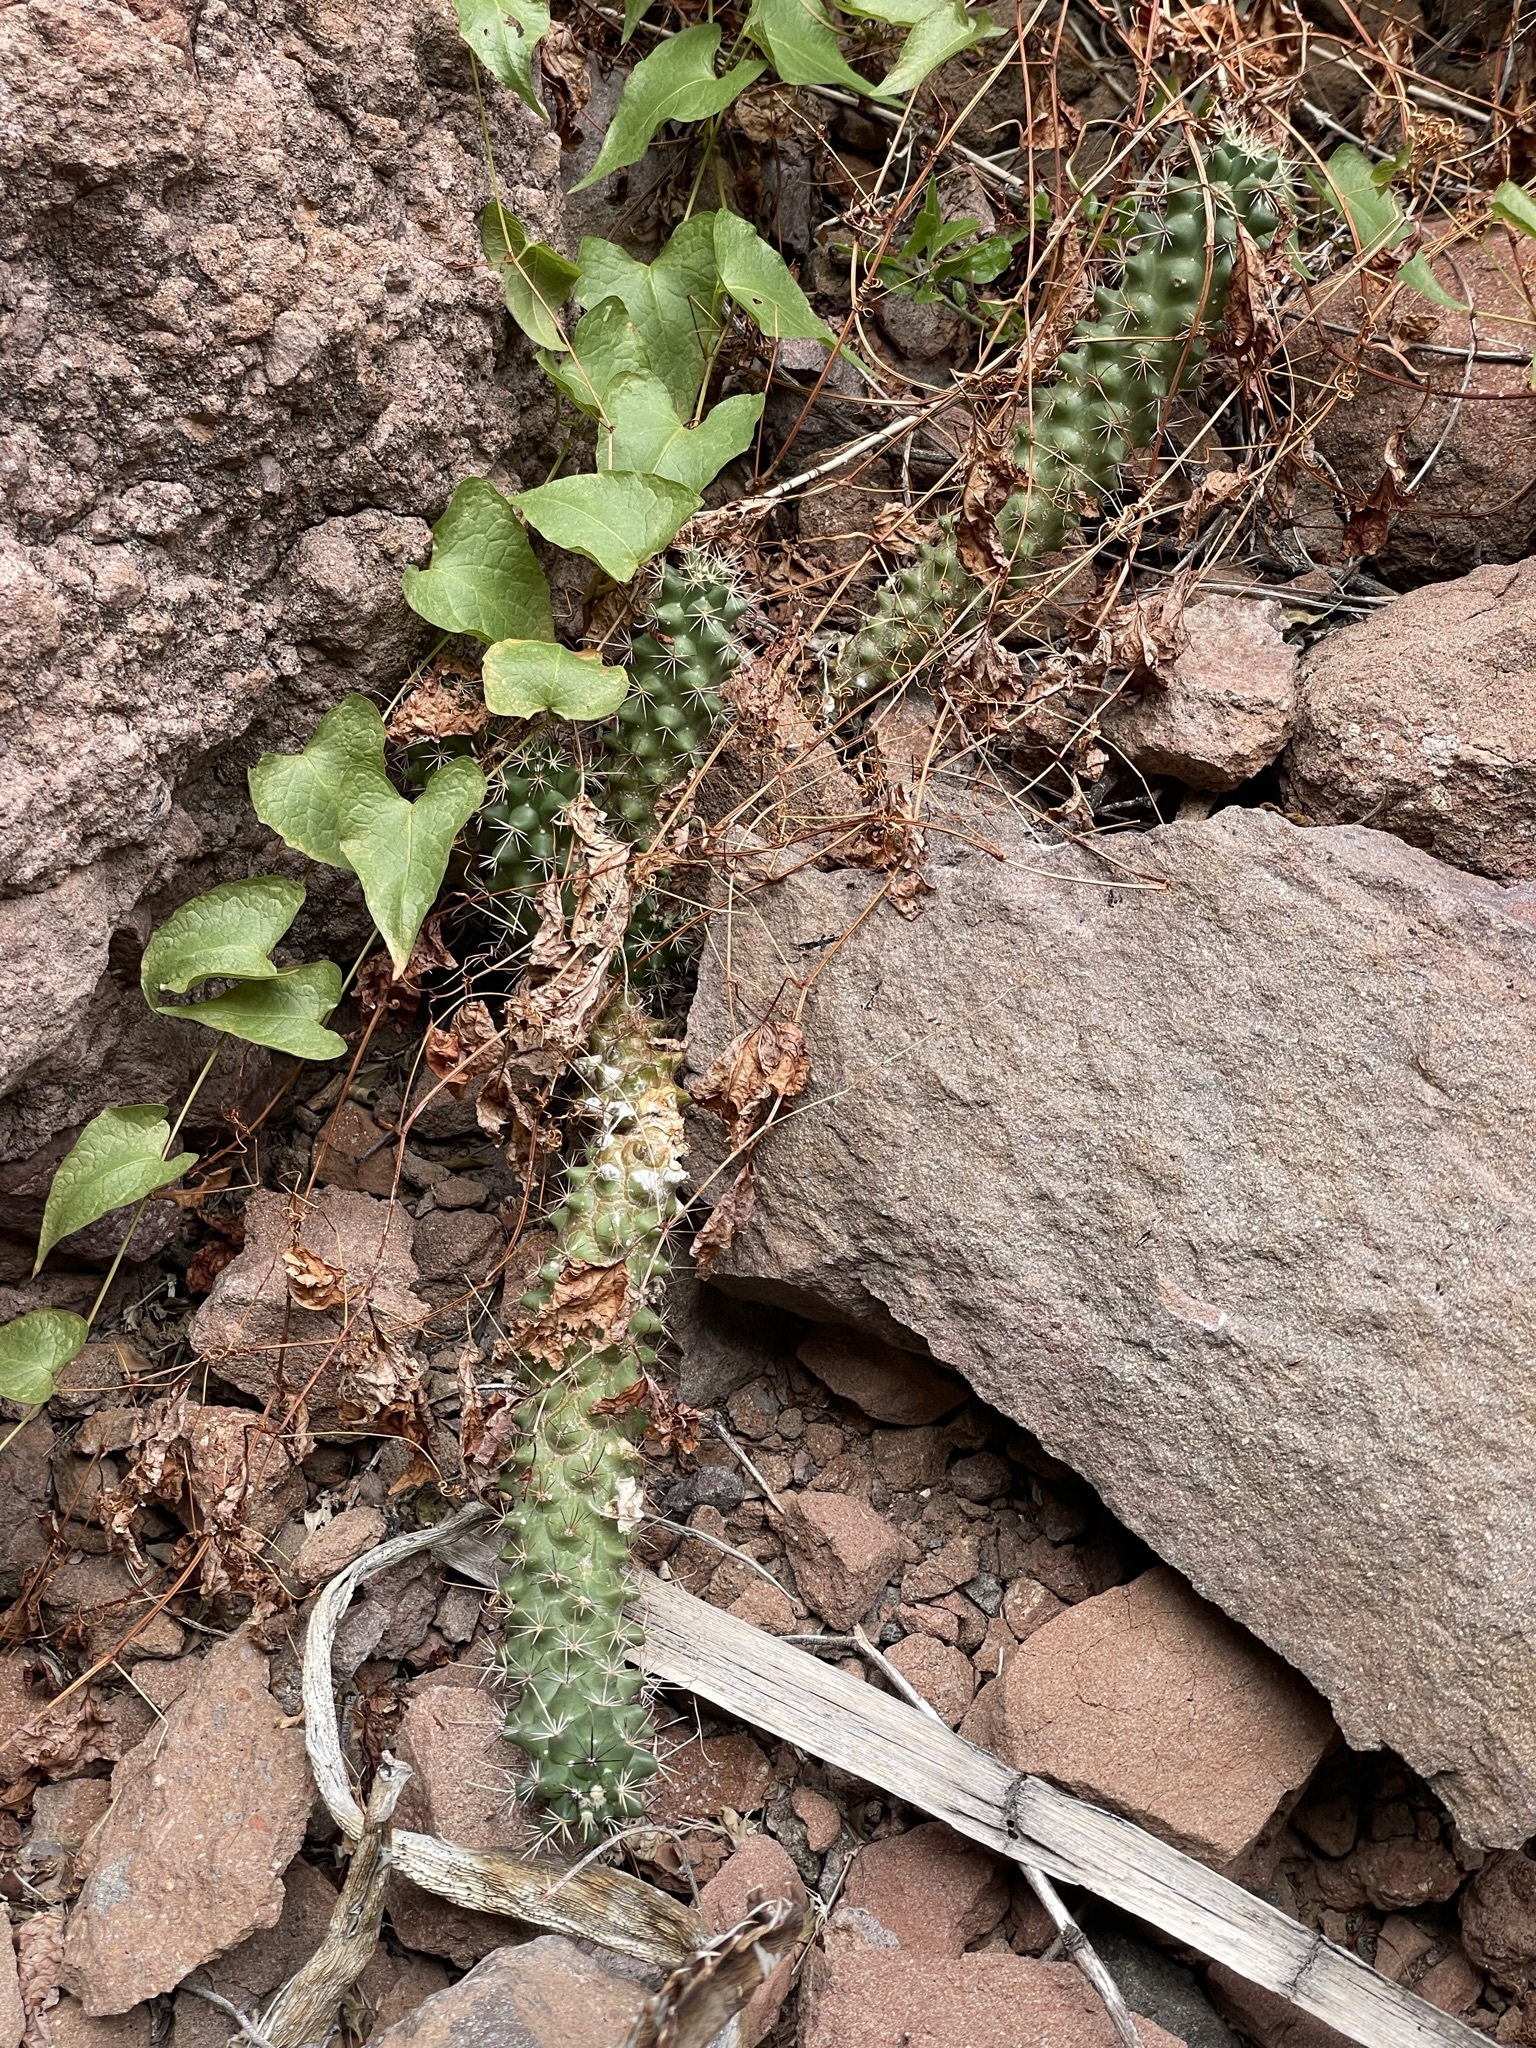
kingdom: Plantae
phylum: Tracheophyta
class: Magnoliopsida
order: Caryophyllales
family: Cactaceae
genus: Cochemiea
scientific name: Cochemiea poselgeri
